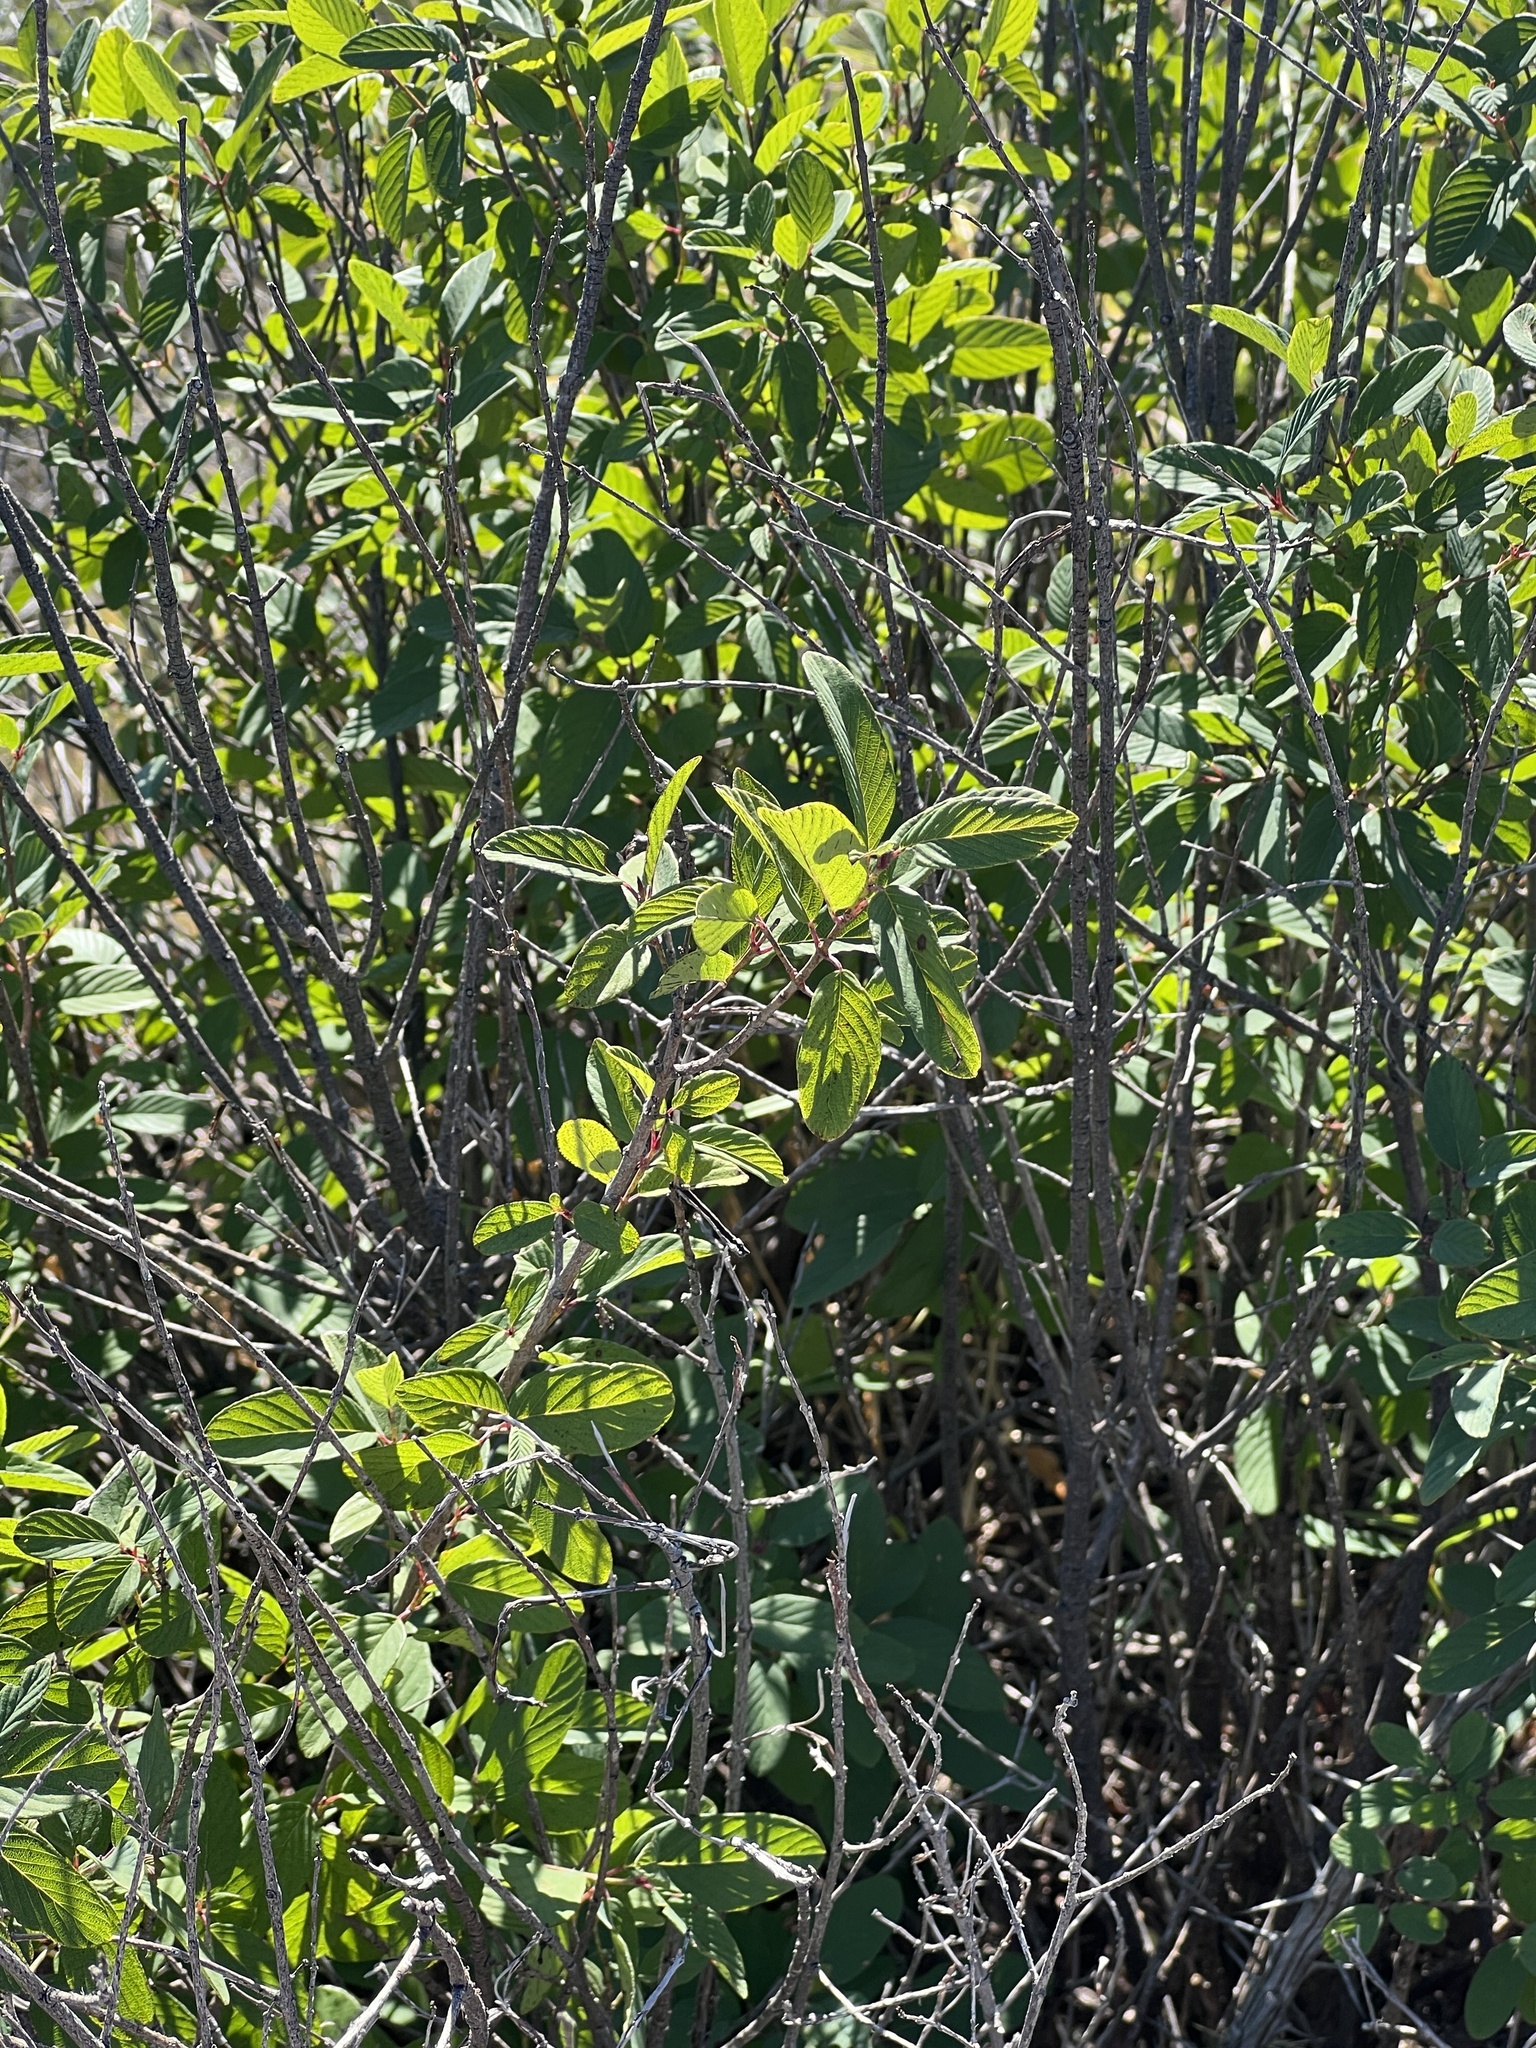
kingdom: Plantae
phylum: Tracheophyta
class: Magnoliopsida
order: Rosales
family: Rhamnaceae
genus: Karwinskia
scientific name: Karwinskia humboldtiana
